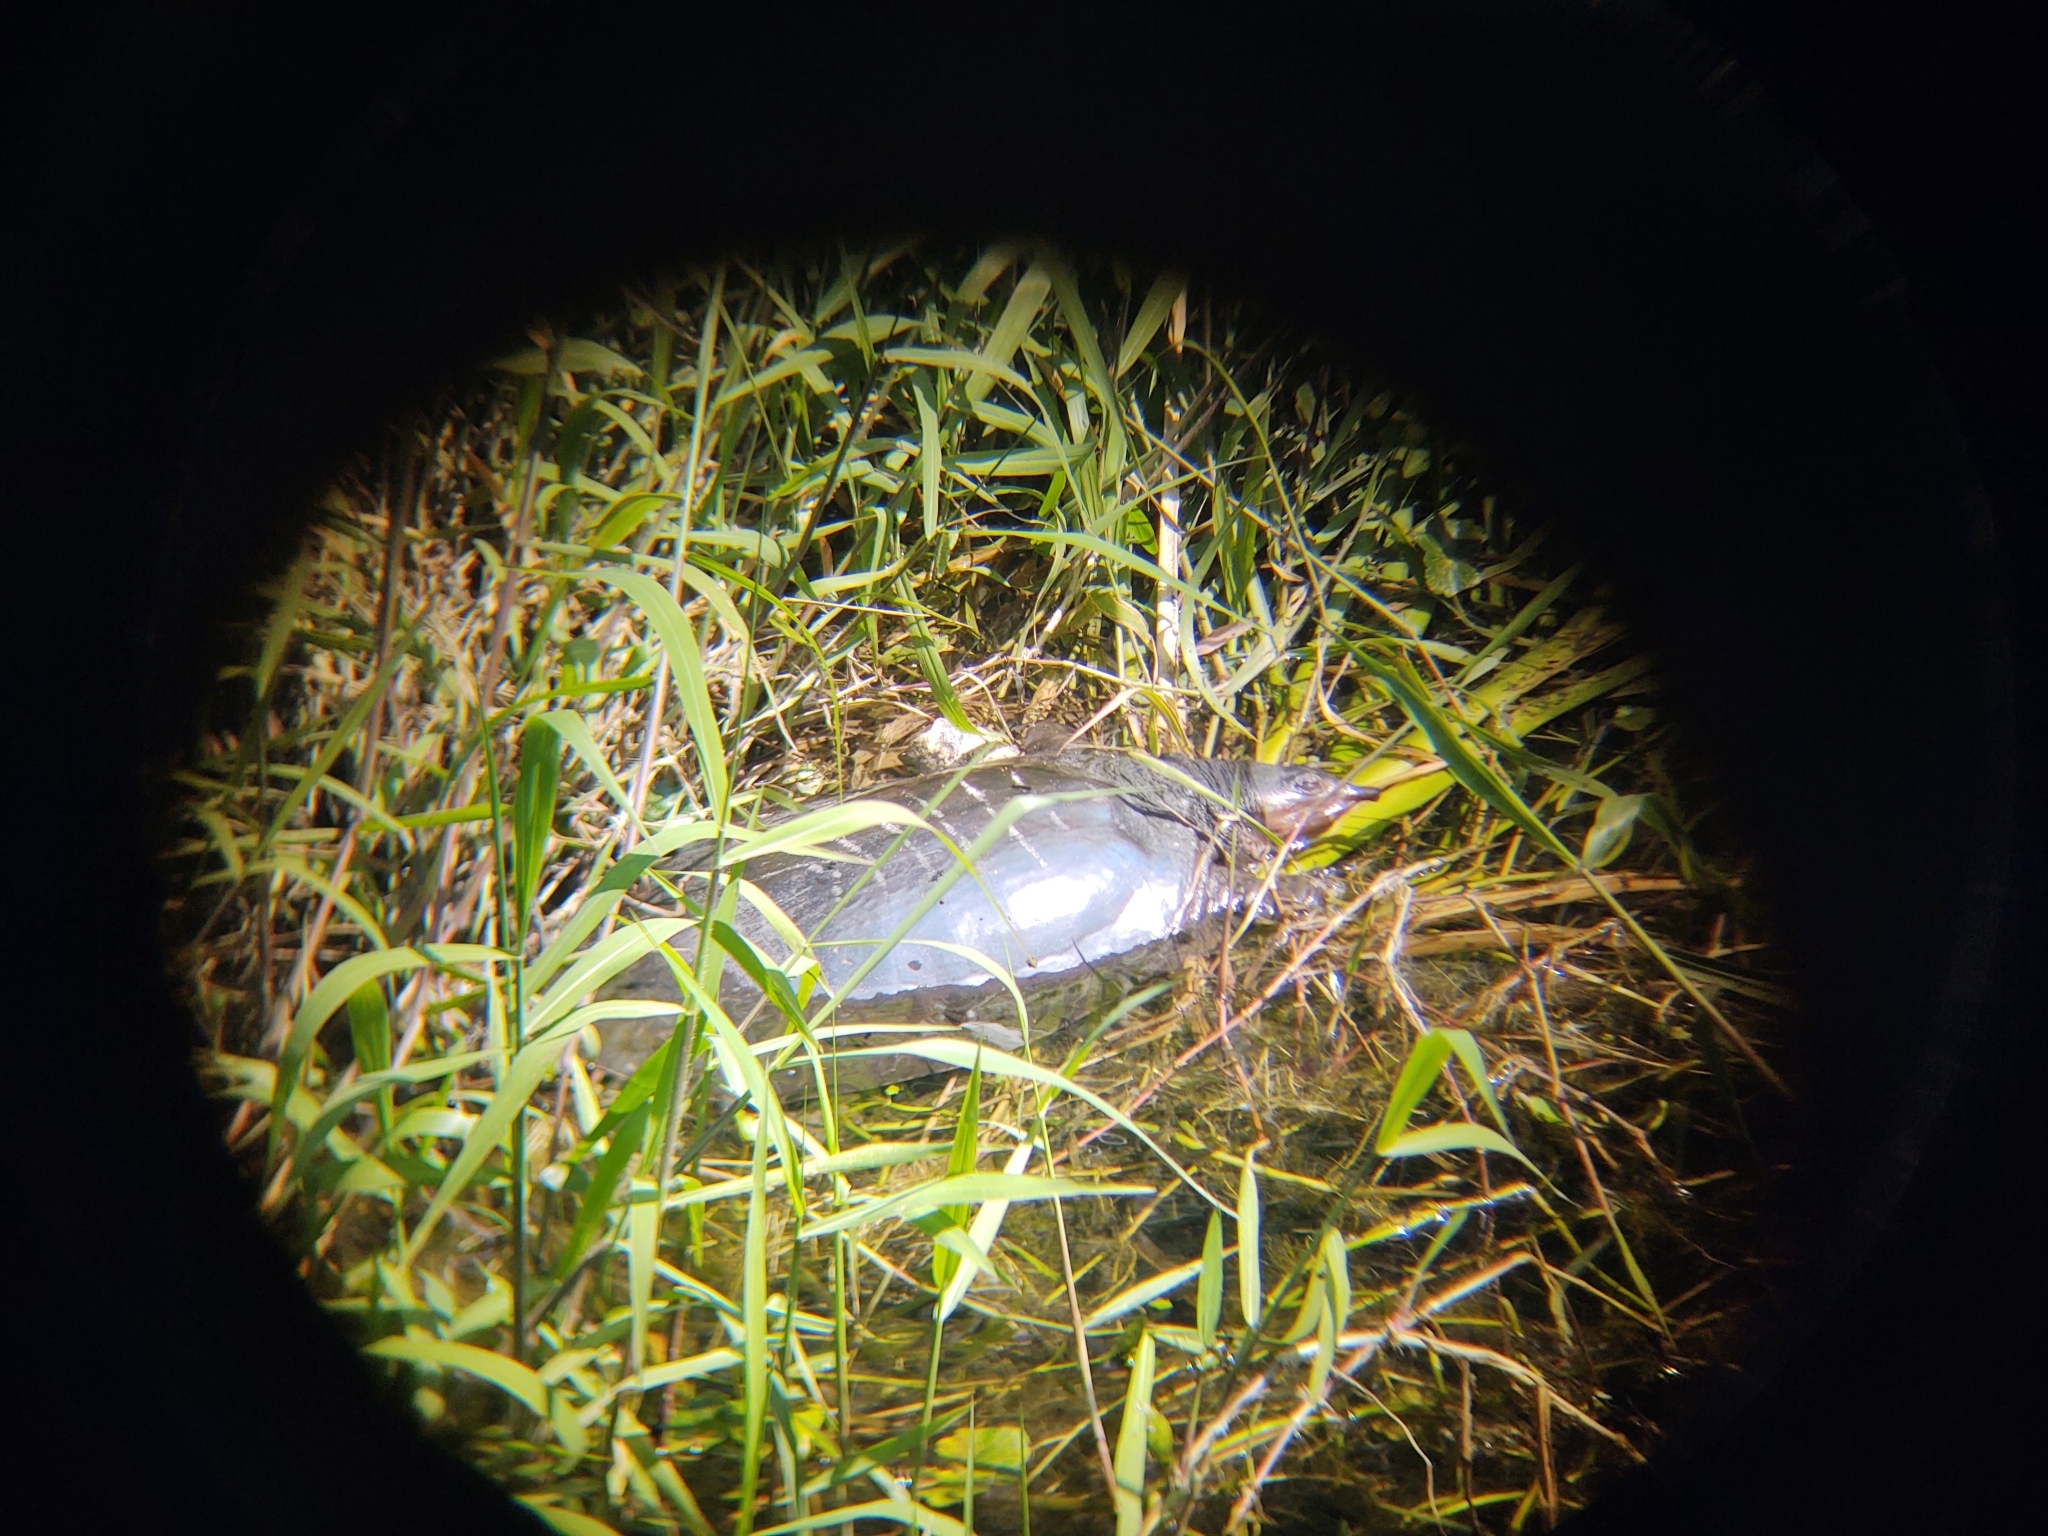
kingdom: Animalia
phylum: Chordata
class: Testudines
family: Trionychidae
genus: Apalone
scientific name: Apalone ferox
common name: Florida softshell turtle
